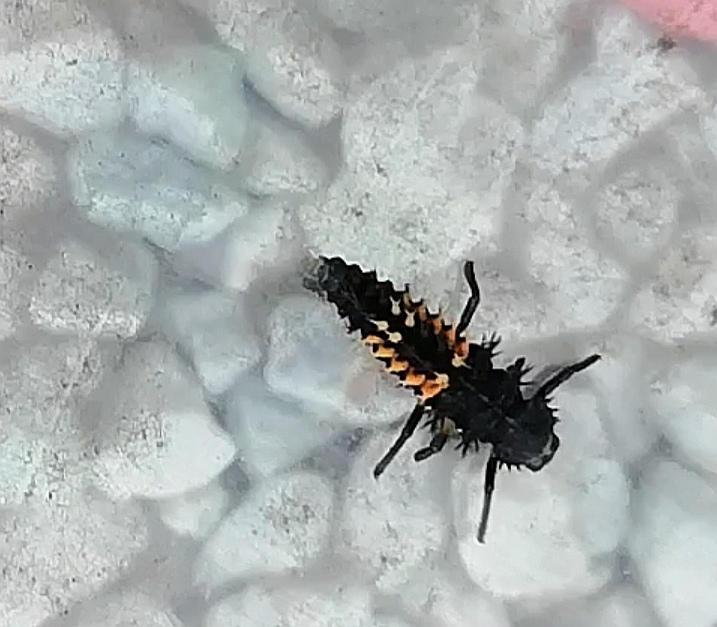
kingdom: Animalia
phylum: Arthropoda
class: Insecta
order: Coleoptera
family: Coccinellidae
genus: Harmonia
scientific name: Harmonia axyridis
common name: Harlequin ladybird
